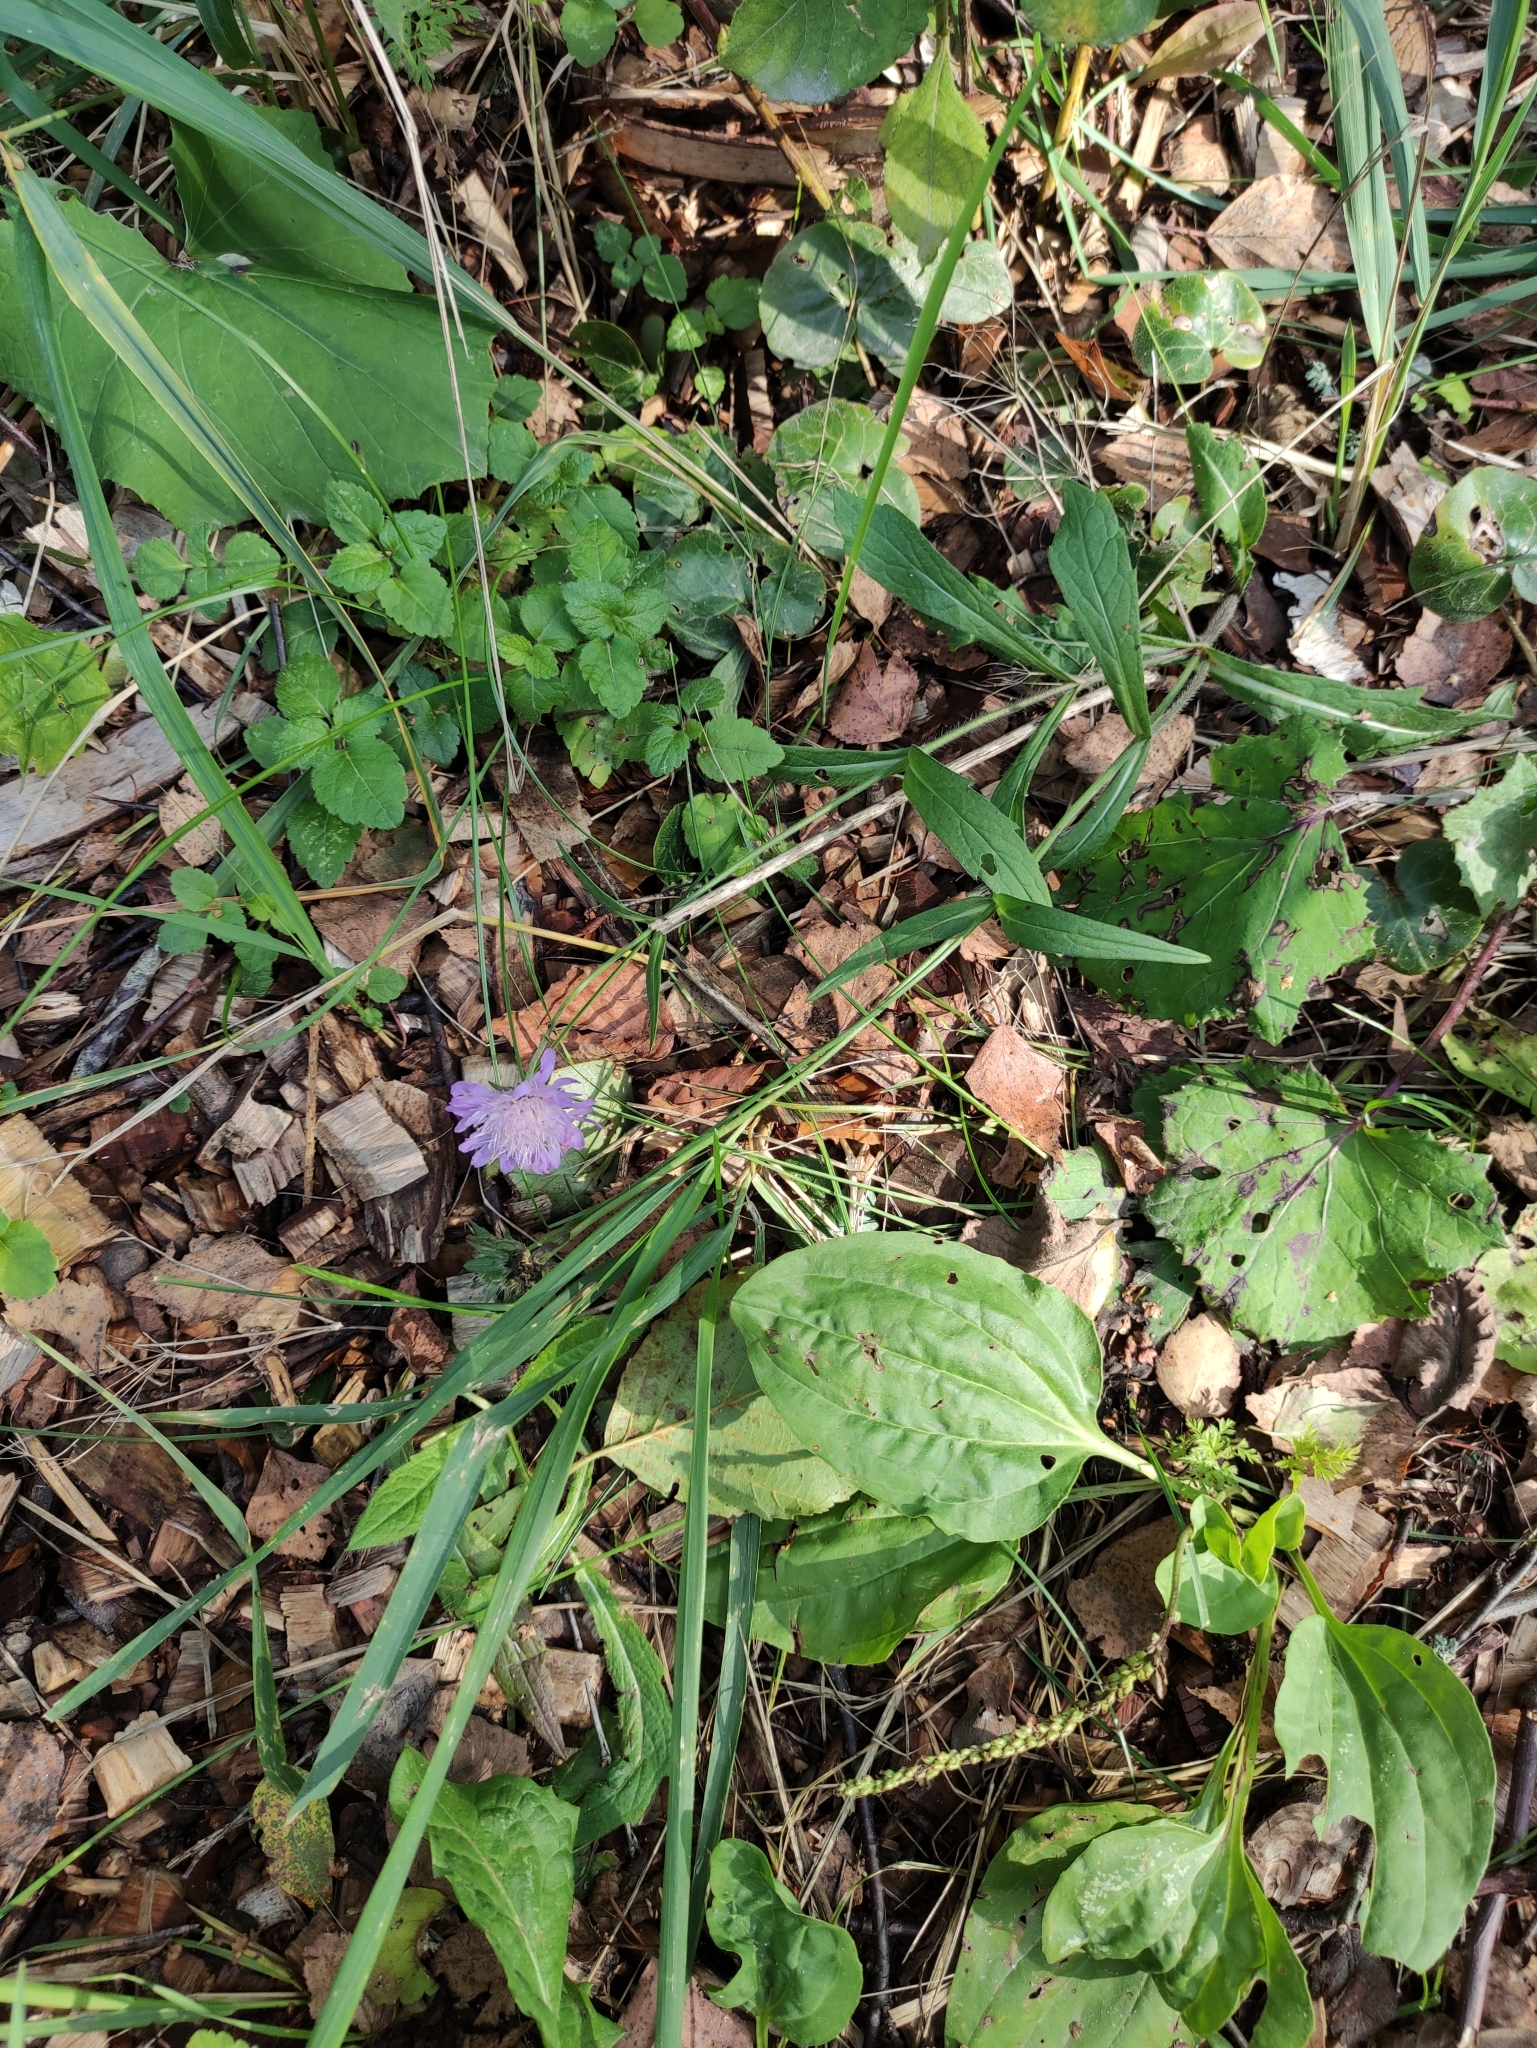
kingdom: Plantae
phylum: Tracheophyta
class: Magnoliopsida
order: Dipsacales
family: Caprifoliaceae
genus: Knautia
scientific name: Knautia arvensis
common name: Field scabiosa
